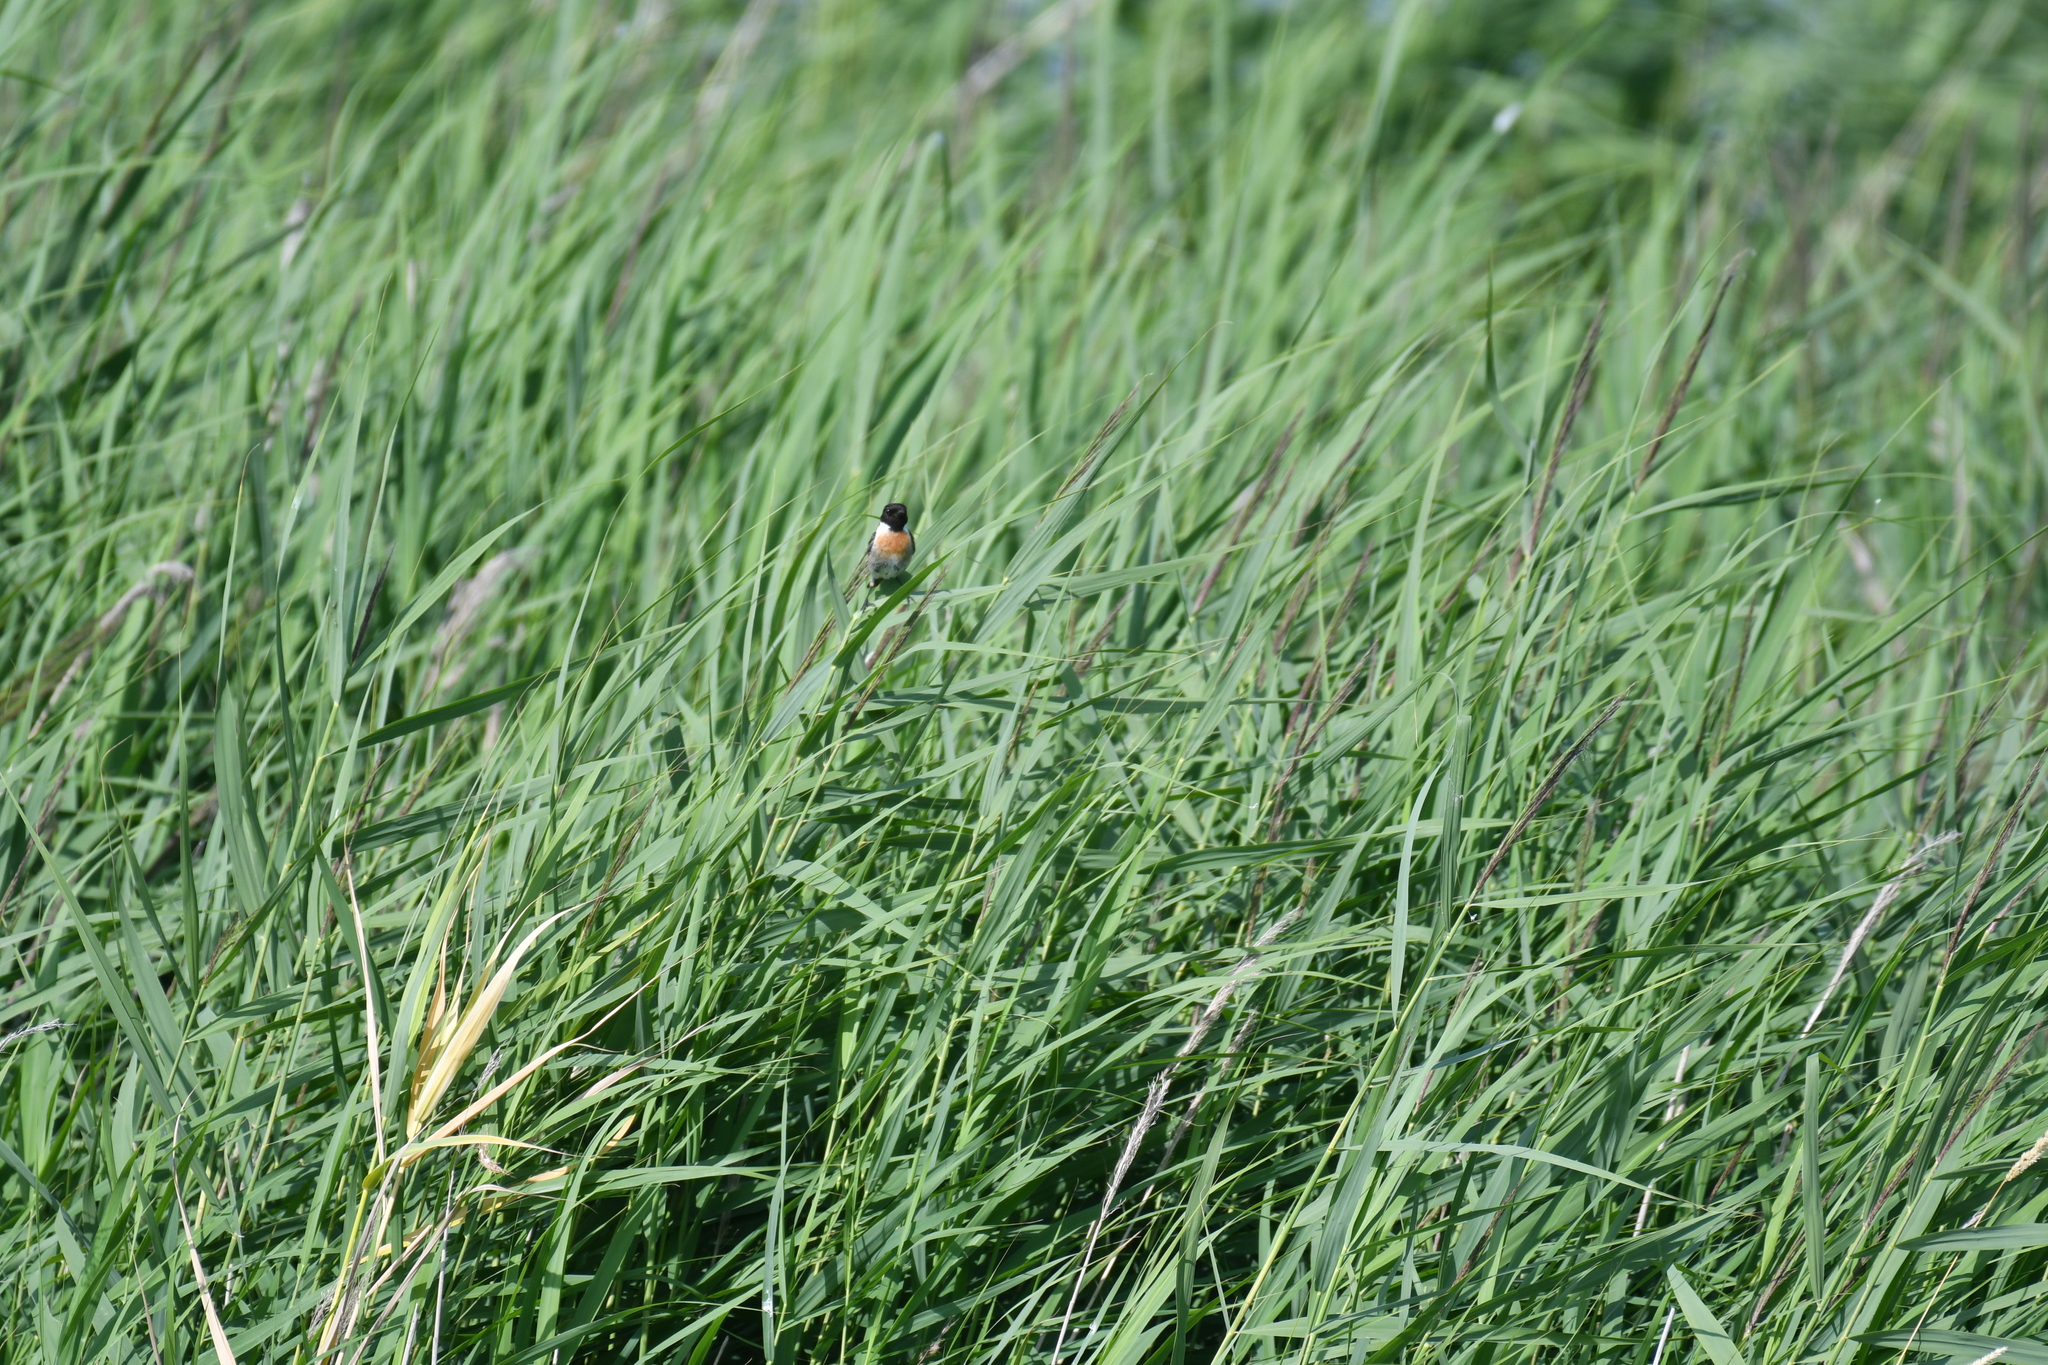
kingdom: Animalia
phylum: Chordata
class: Aves
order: Passeriformes
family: Muscicapidae
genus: Saxicola
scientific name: Saxicola rubicola
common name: European stonechat
